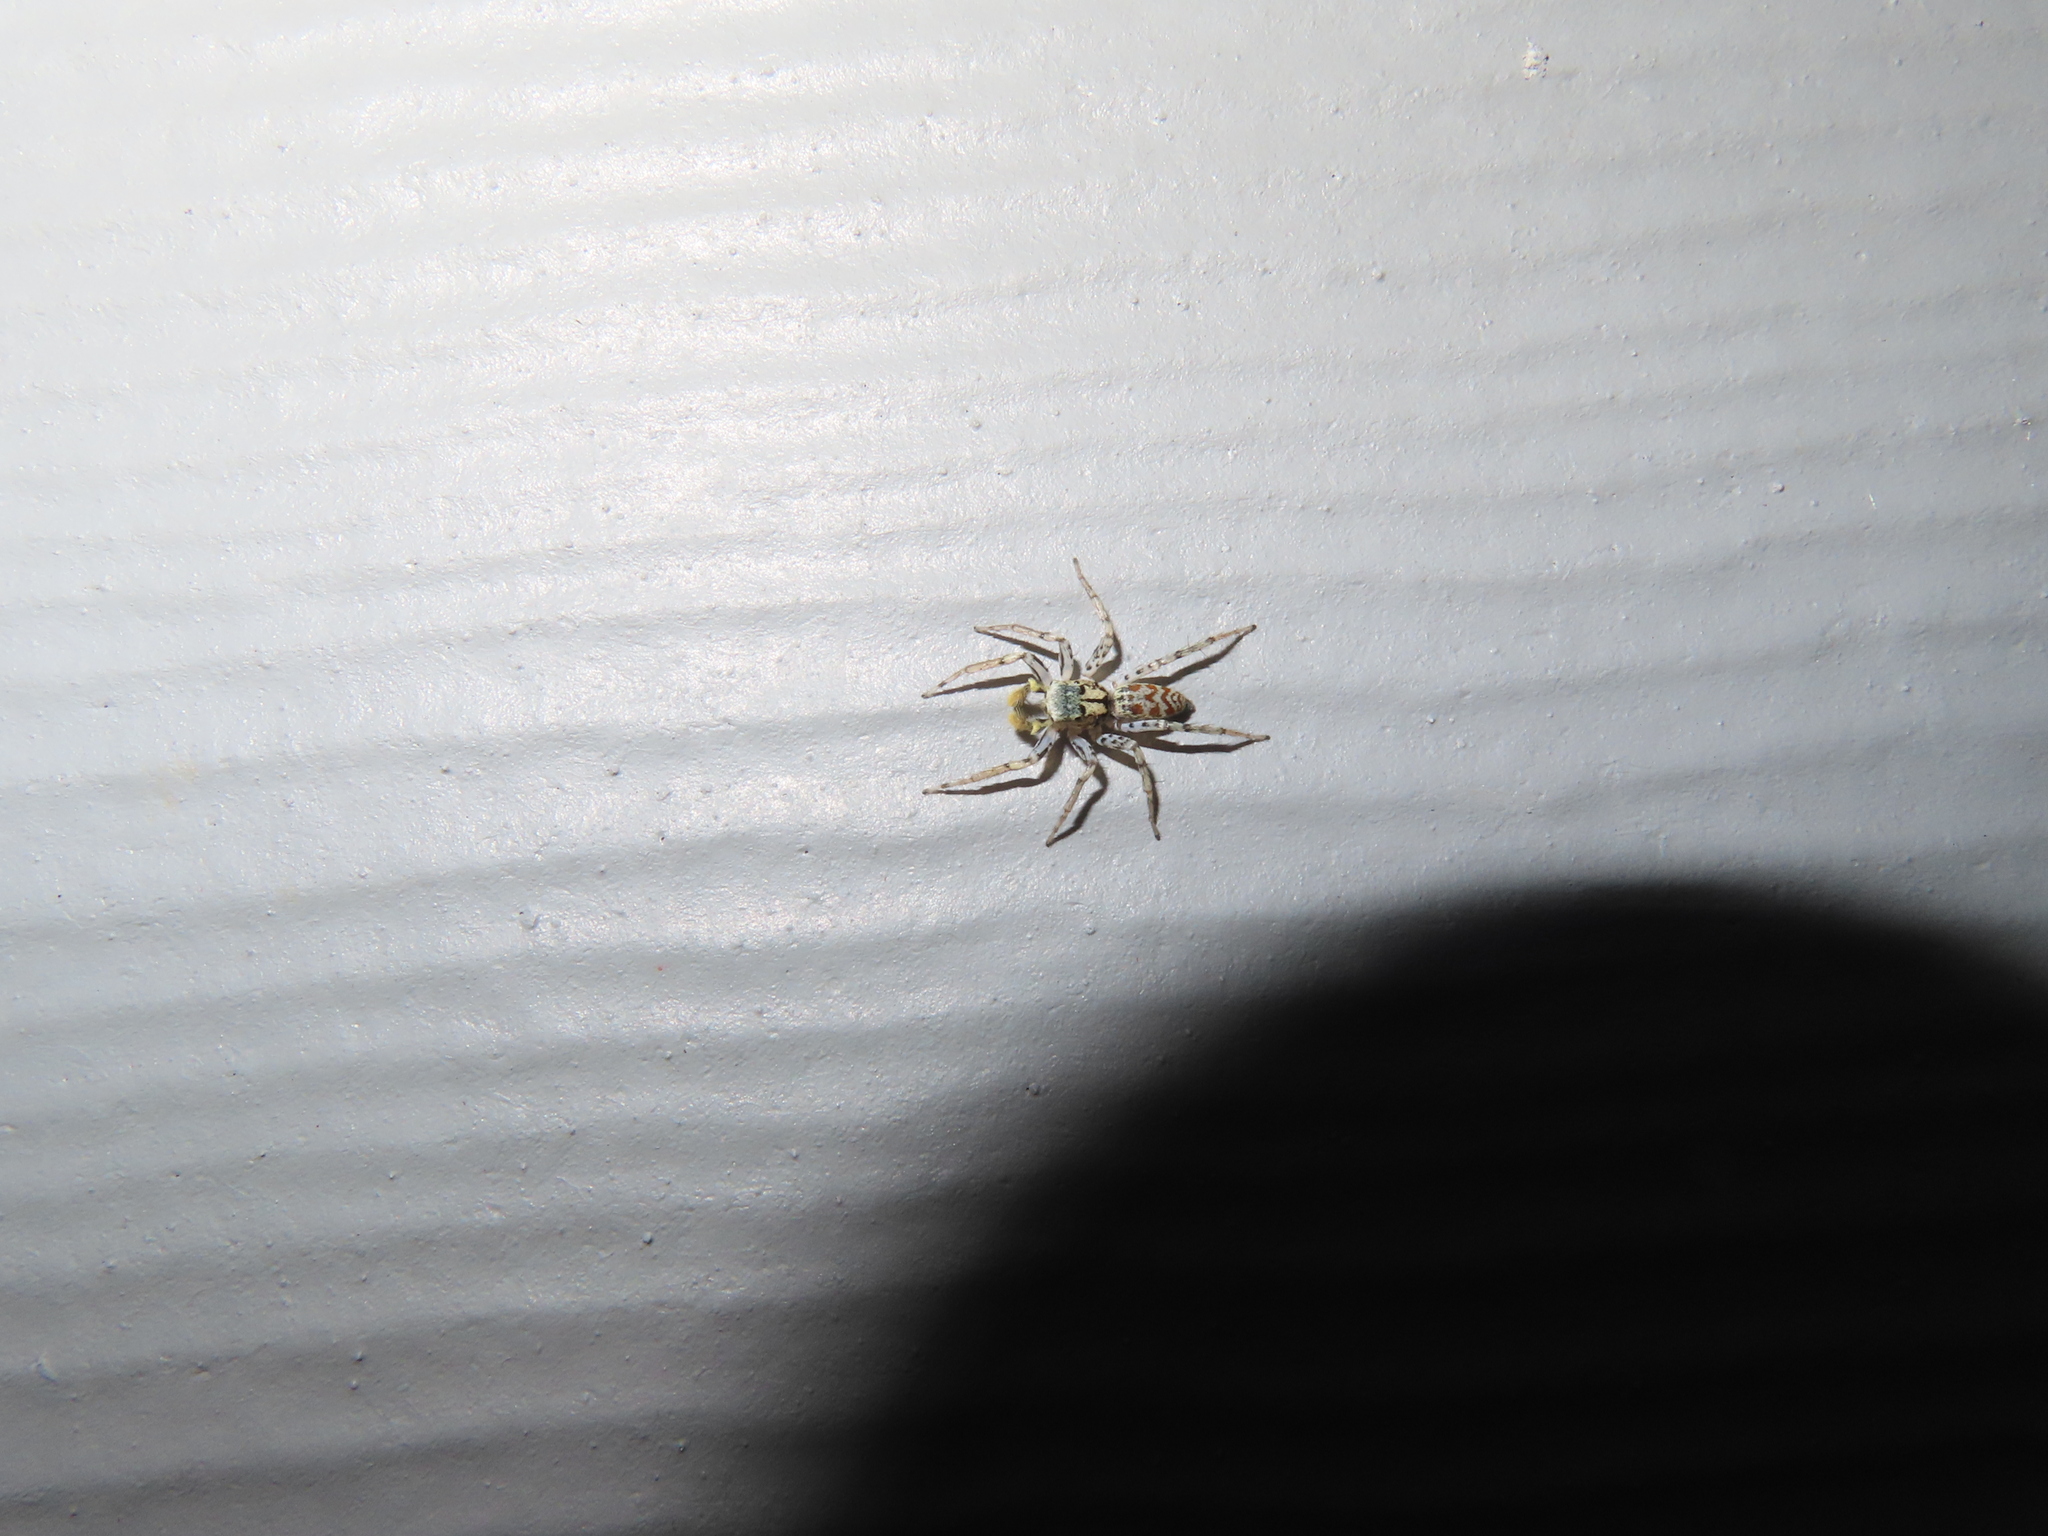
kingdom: Animalia
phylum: Arthropoda
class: Arachnida
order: Araneae
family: Salticidae
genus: Maevia
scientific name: Maevia inclemens
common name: Dimorphic jumper
